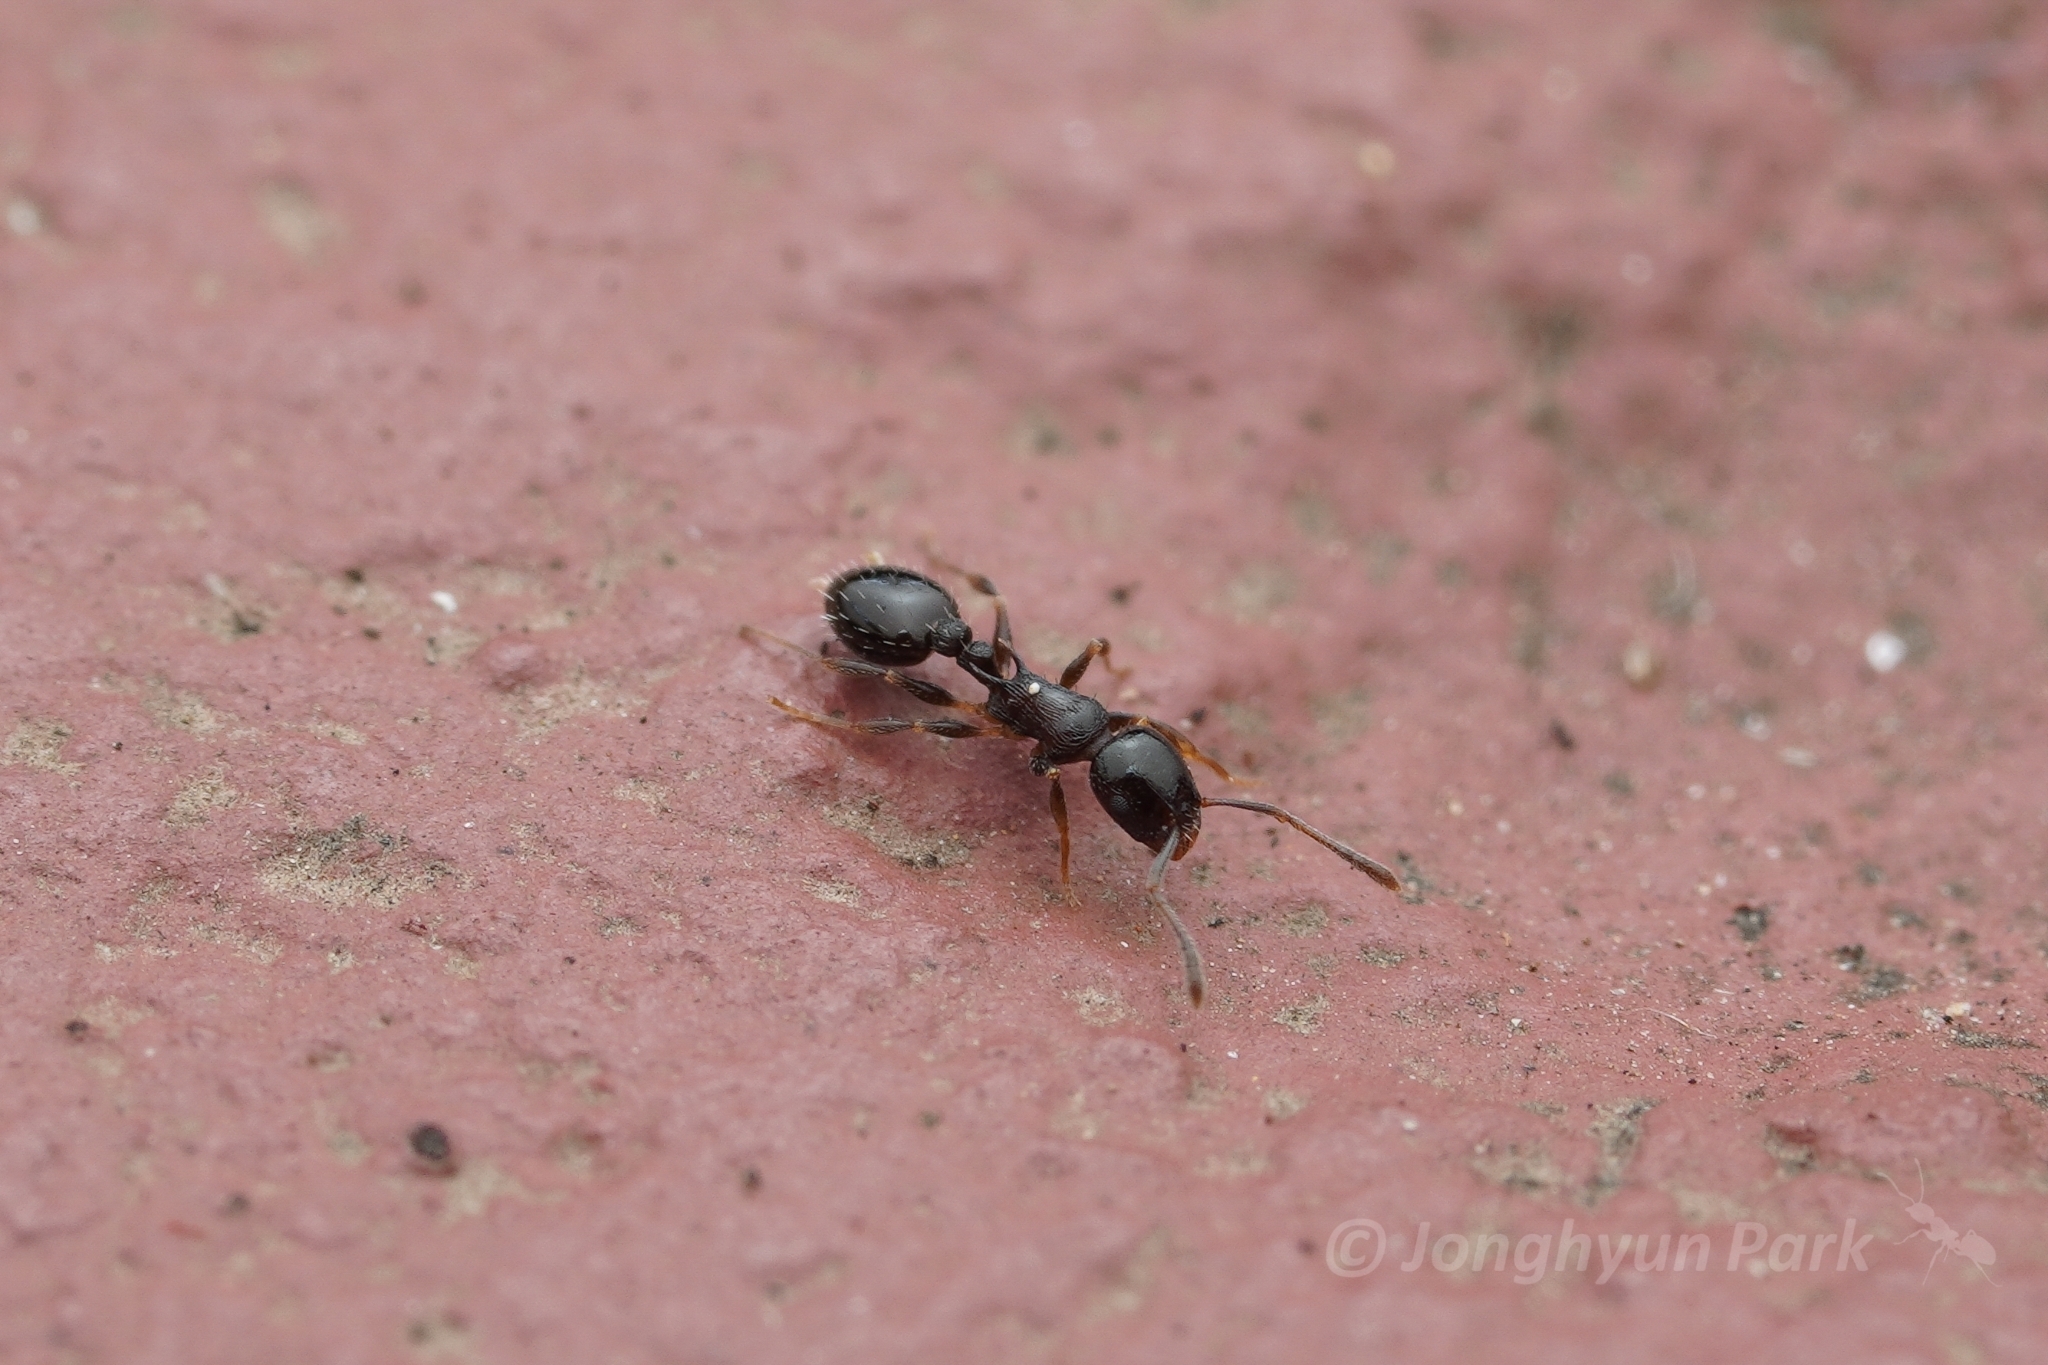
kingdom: Animalia
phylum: Arthropoda
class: Insecta
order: Hymenoptera
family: Formicidae
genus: Temnothorax
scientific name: Temnothorax longispinosus
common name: Long-spined acorn ant
